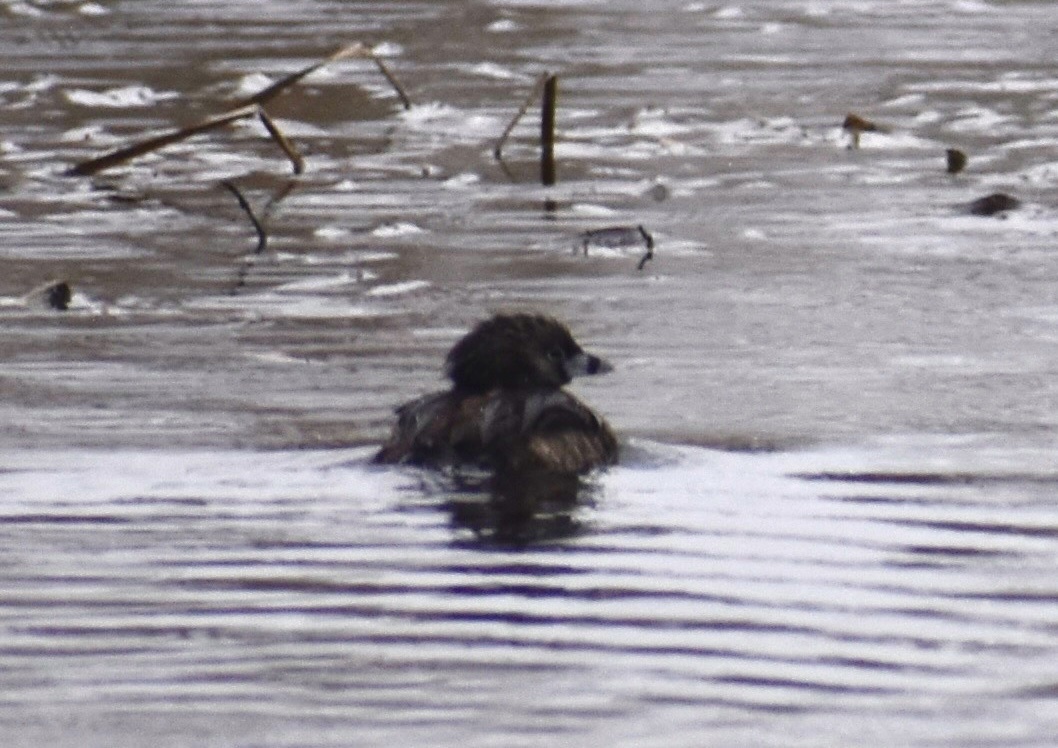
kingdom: Animalia
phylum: Chordata
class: Aves
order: Podicipediformes
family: Podicipedidae
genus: Podilymbus
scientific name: Podilymbus podiceps
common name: Pied-billed grebe
